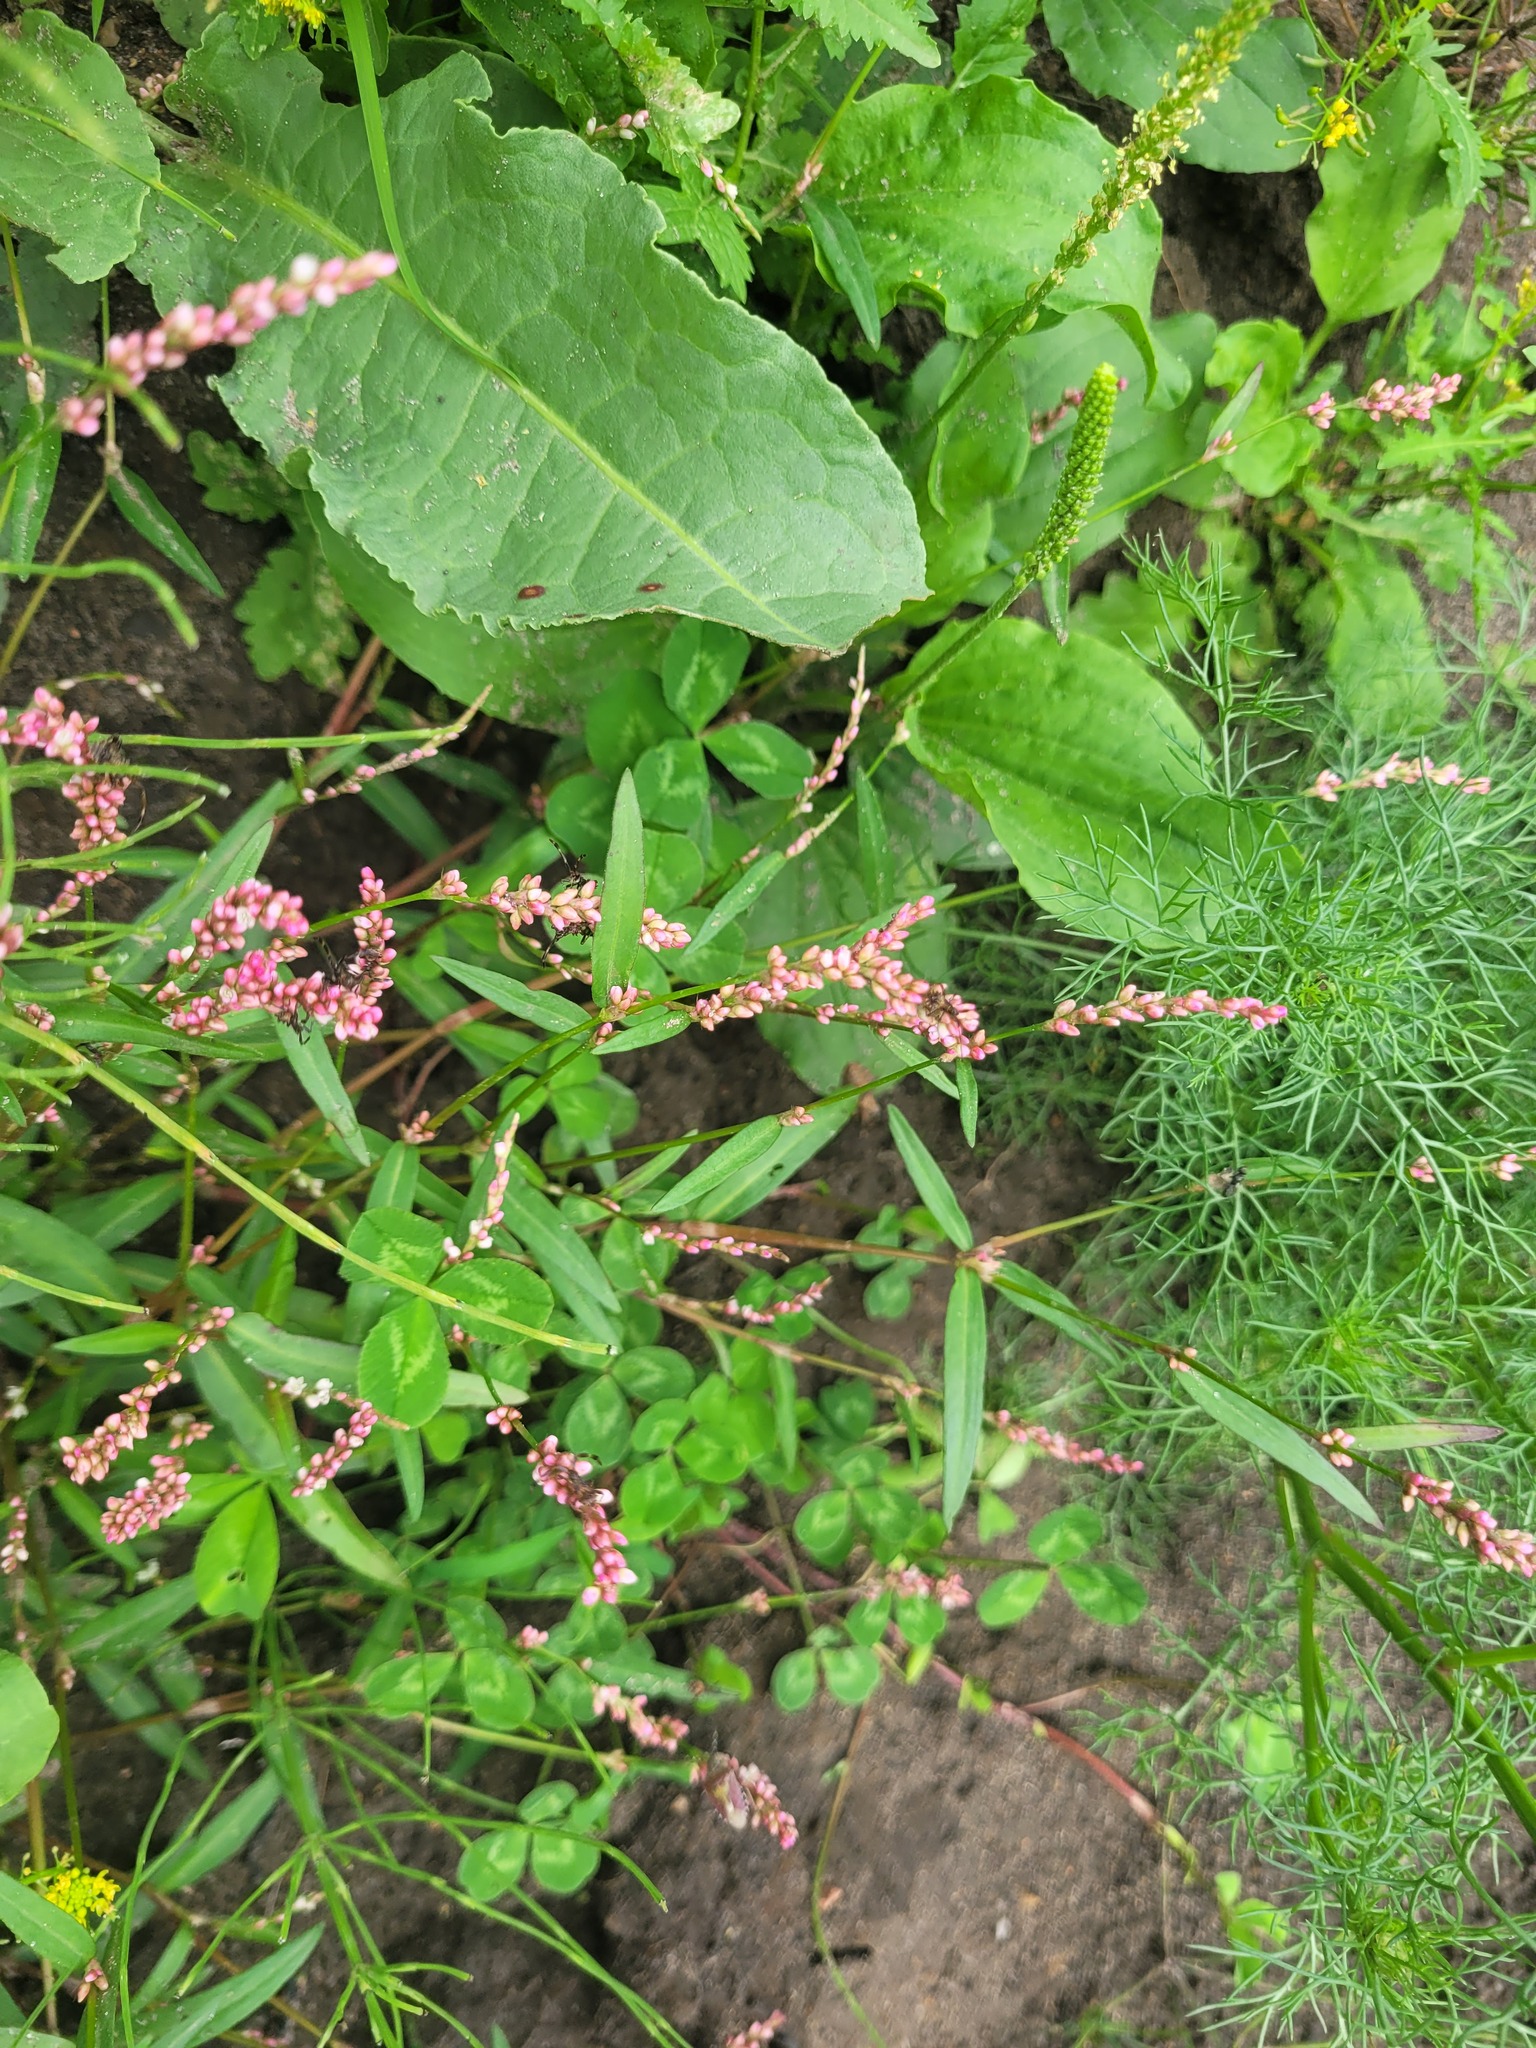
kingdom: Plantae
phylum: Tracheophyta
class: Magnoliopsida
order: Caryophyllales
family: Polygonaceae
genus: Persicaria
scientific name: Persicaria minor
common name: Small water-pepper
